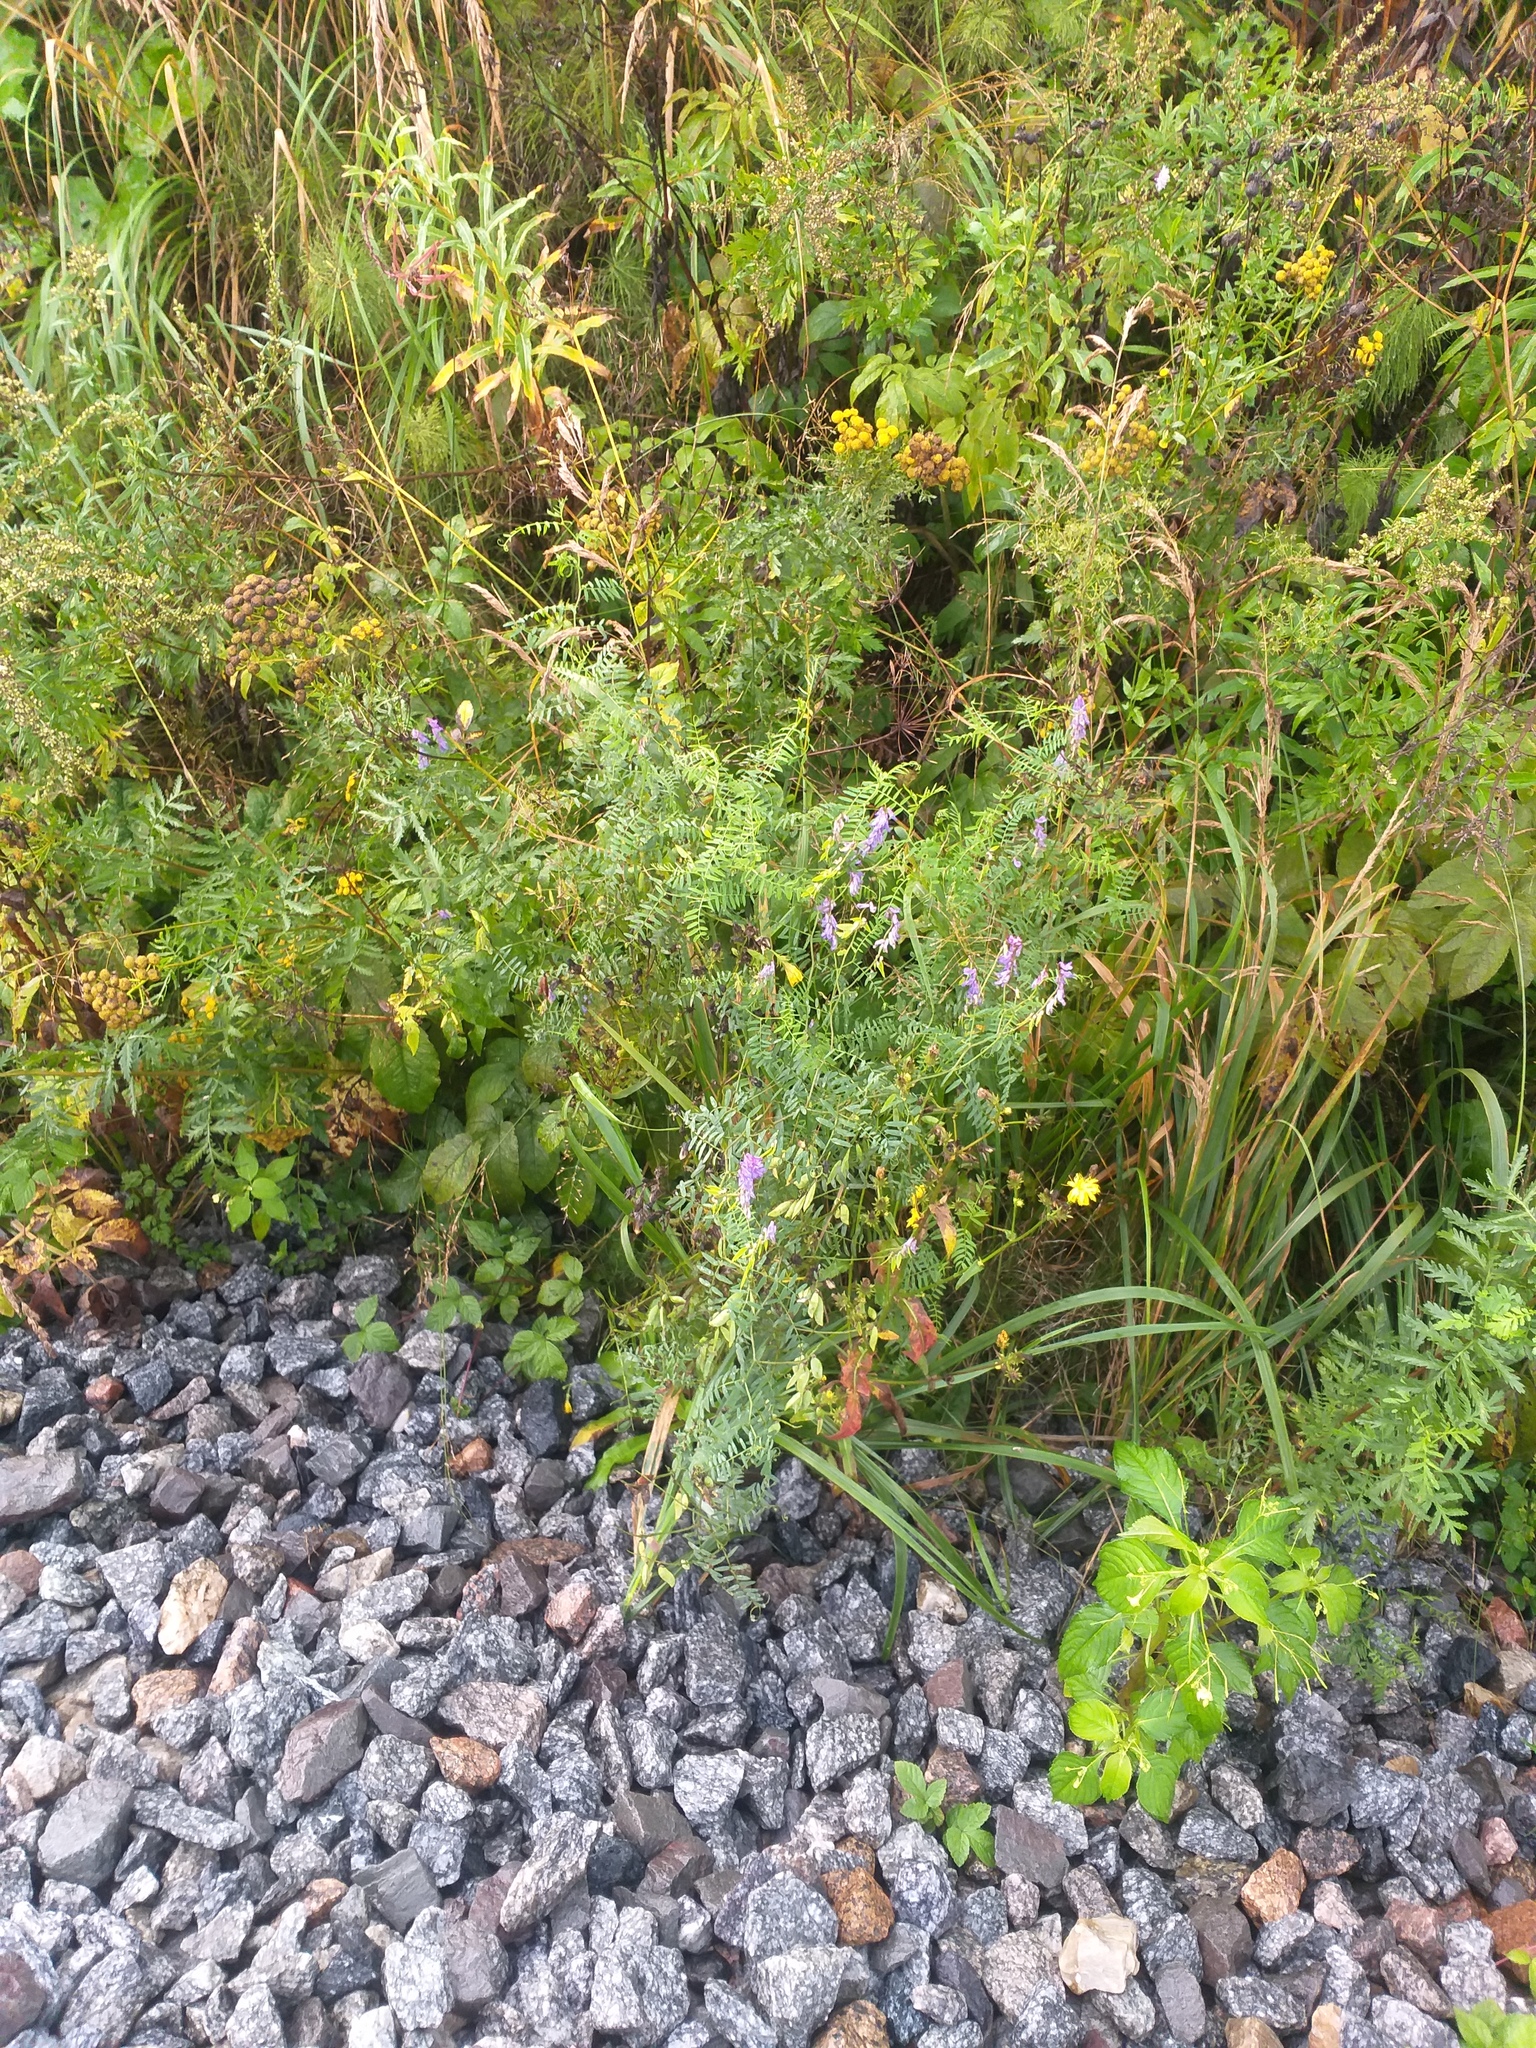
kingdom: Plantae
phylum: Tracheophyta
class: Magnoliopsida
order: Fabales
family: Fabaceae
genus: Vicia
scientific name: Vicia cracca
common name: Bird vetch
